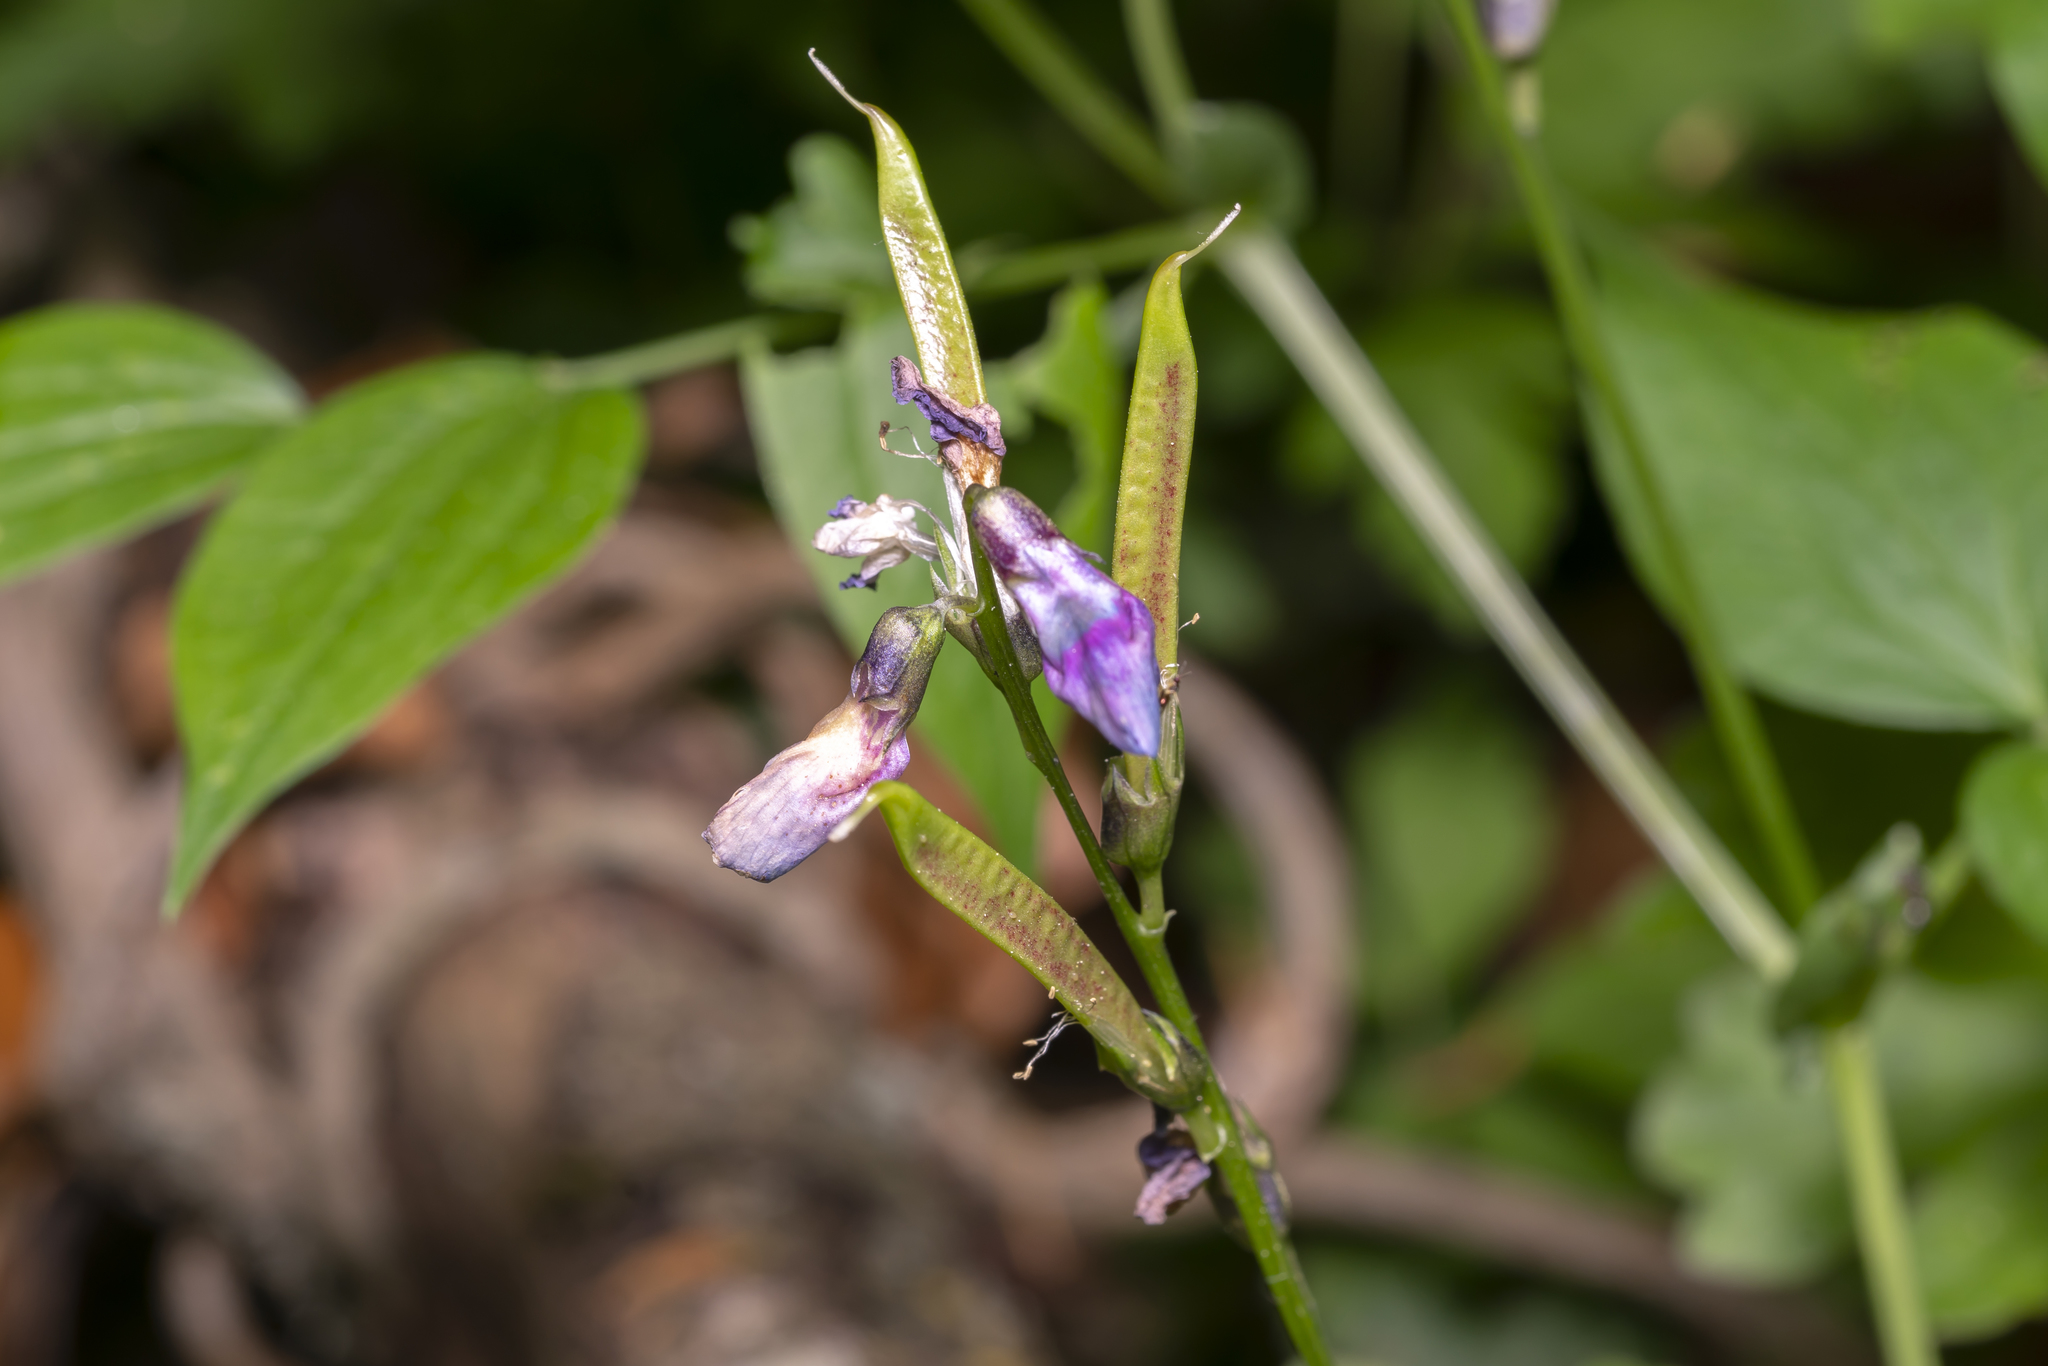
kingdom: Plantae
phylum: Tracheophyta
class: Magnoliopsida
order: Fabales
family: Fabaceae
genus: Lathyrus
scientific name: Lathyrus vernus
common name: Spring pea
